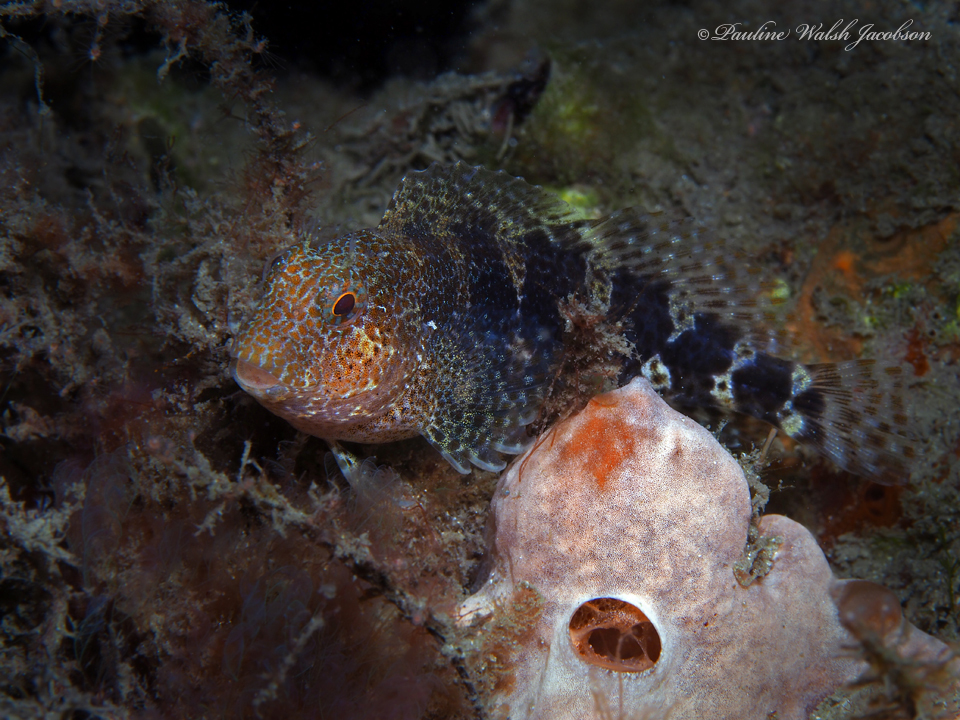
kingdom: Animalia
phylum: Chordata
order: Perciformes
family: Blenniidae
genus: Hypleurochilus
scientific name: Hypleurochilus bermudensis
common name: Barred blenny
